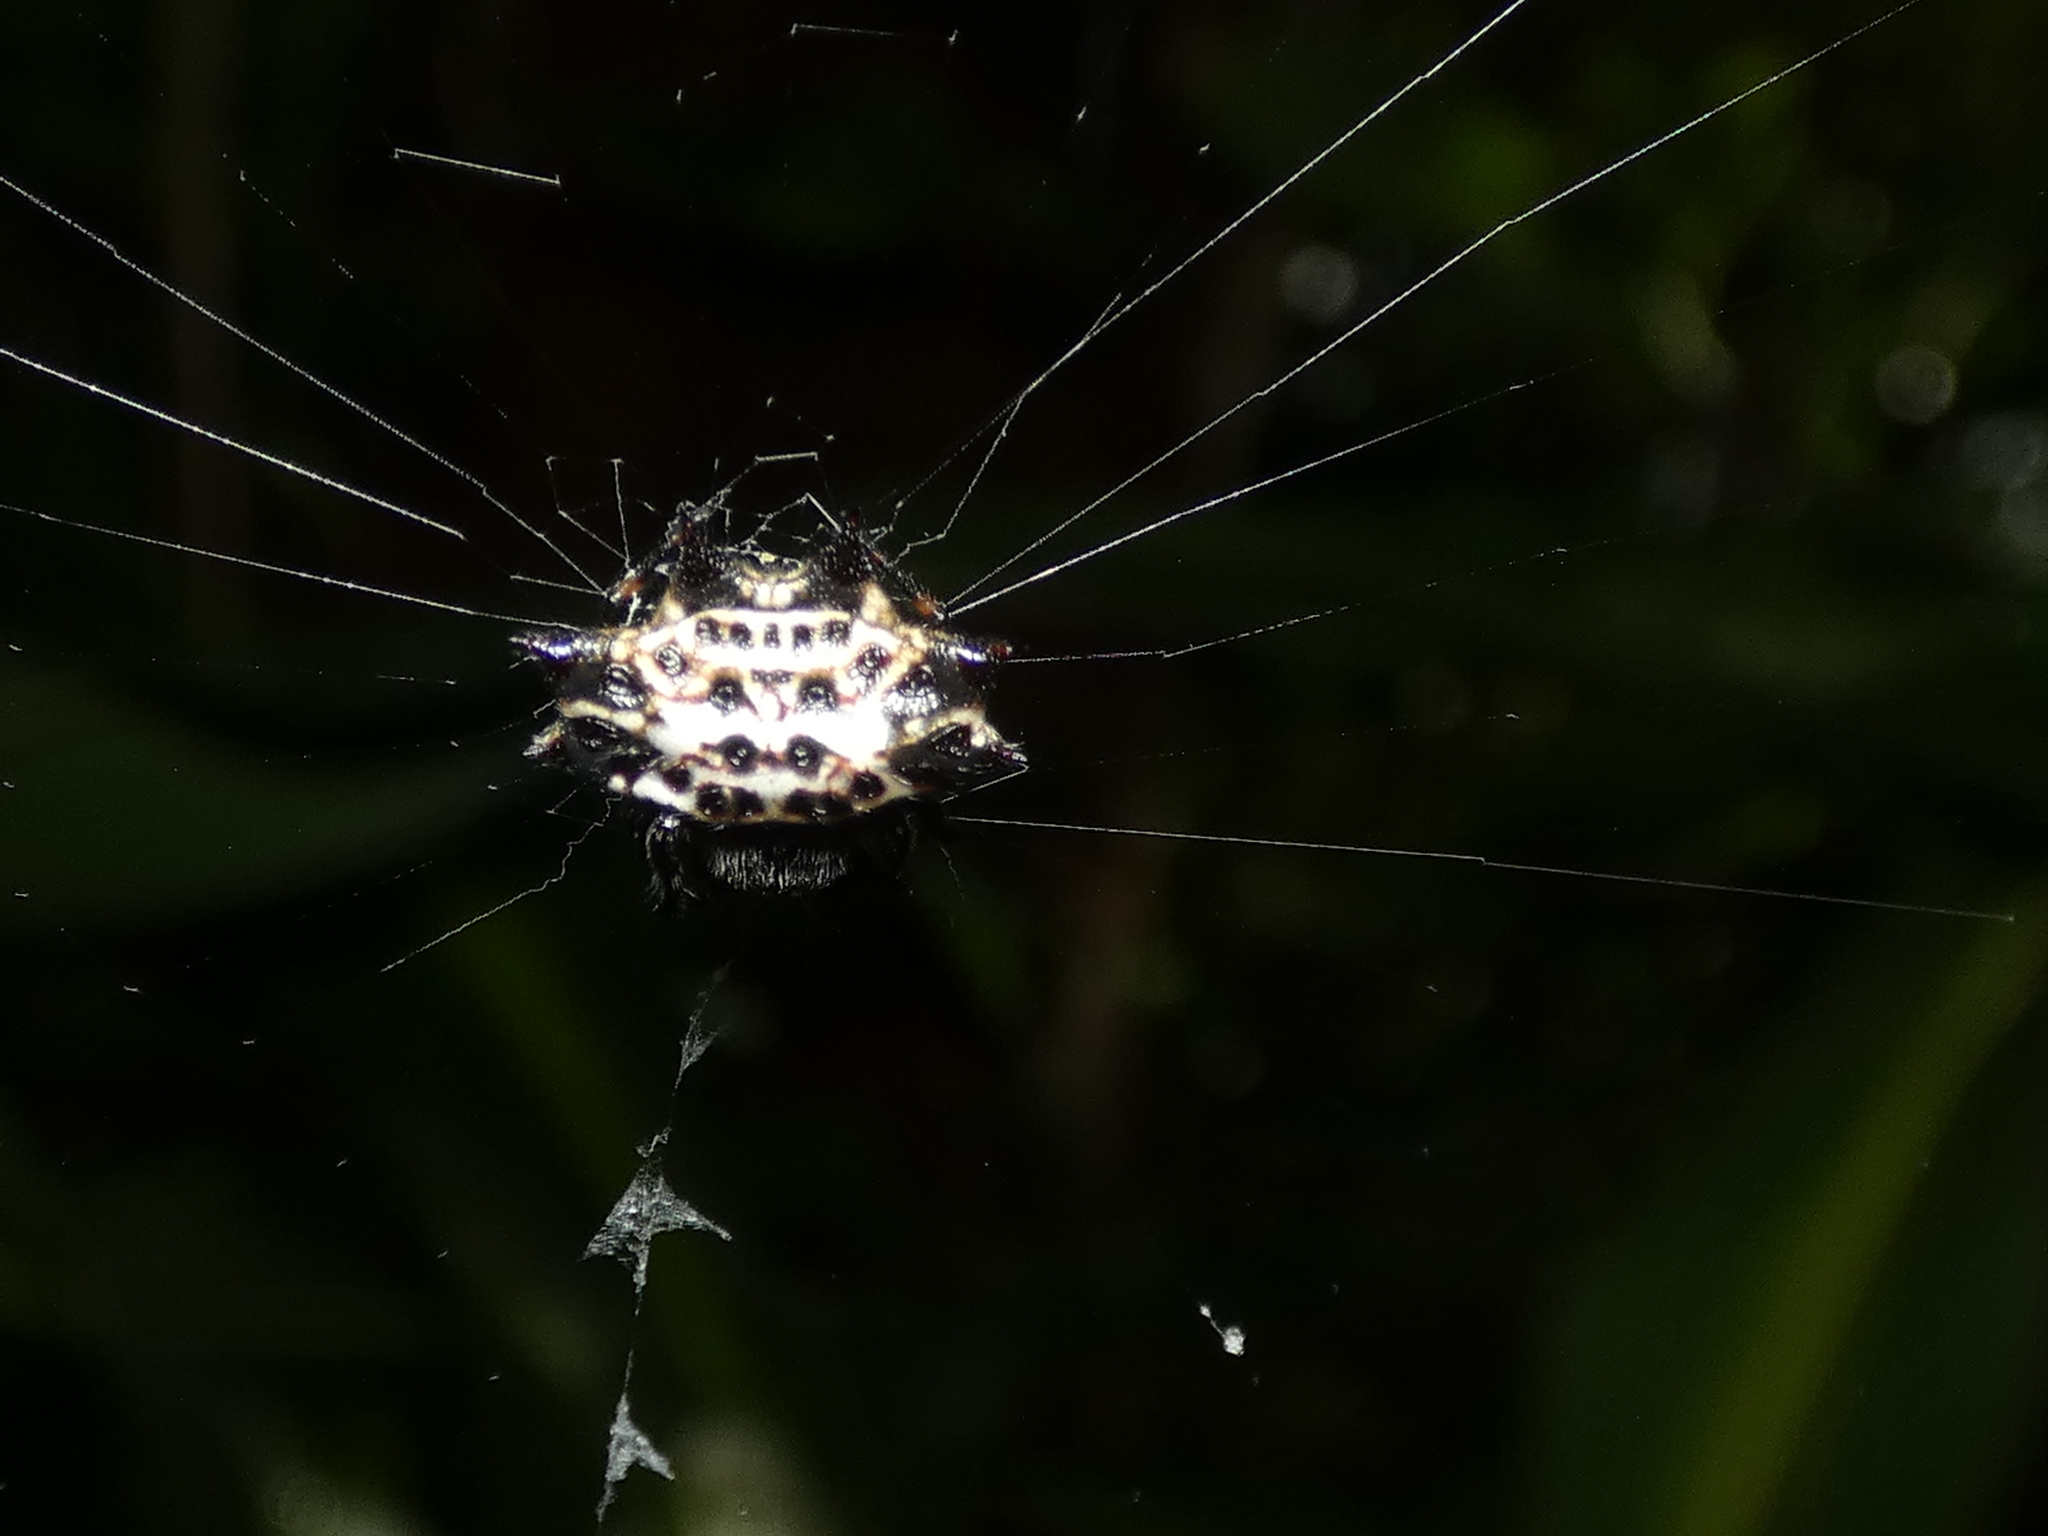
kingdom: Animalia
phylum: Arthropoda
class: Arachnida
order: Araneae
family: Araneidae
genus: Gasteracantha
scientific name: Gasteracantha cancriformis
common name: Orb weavers
